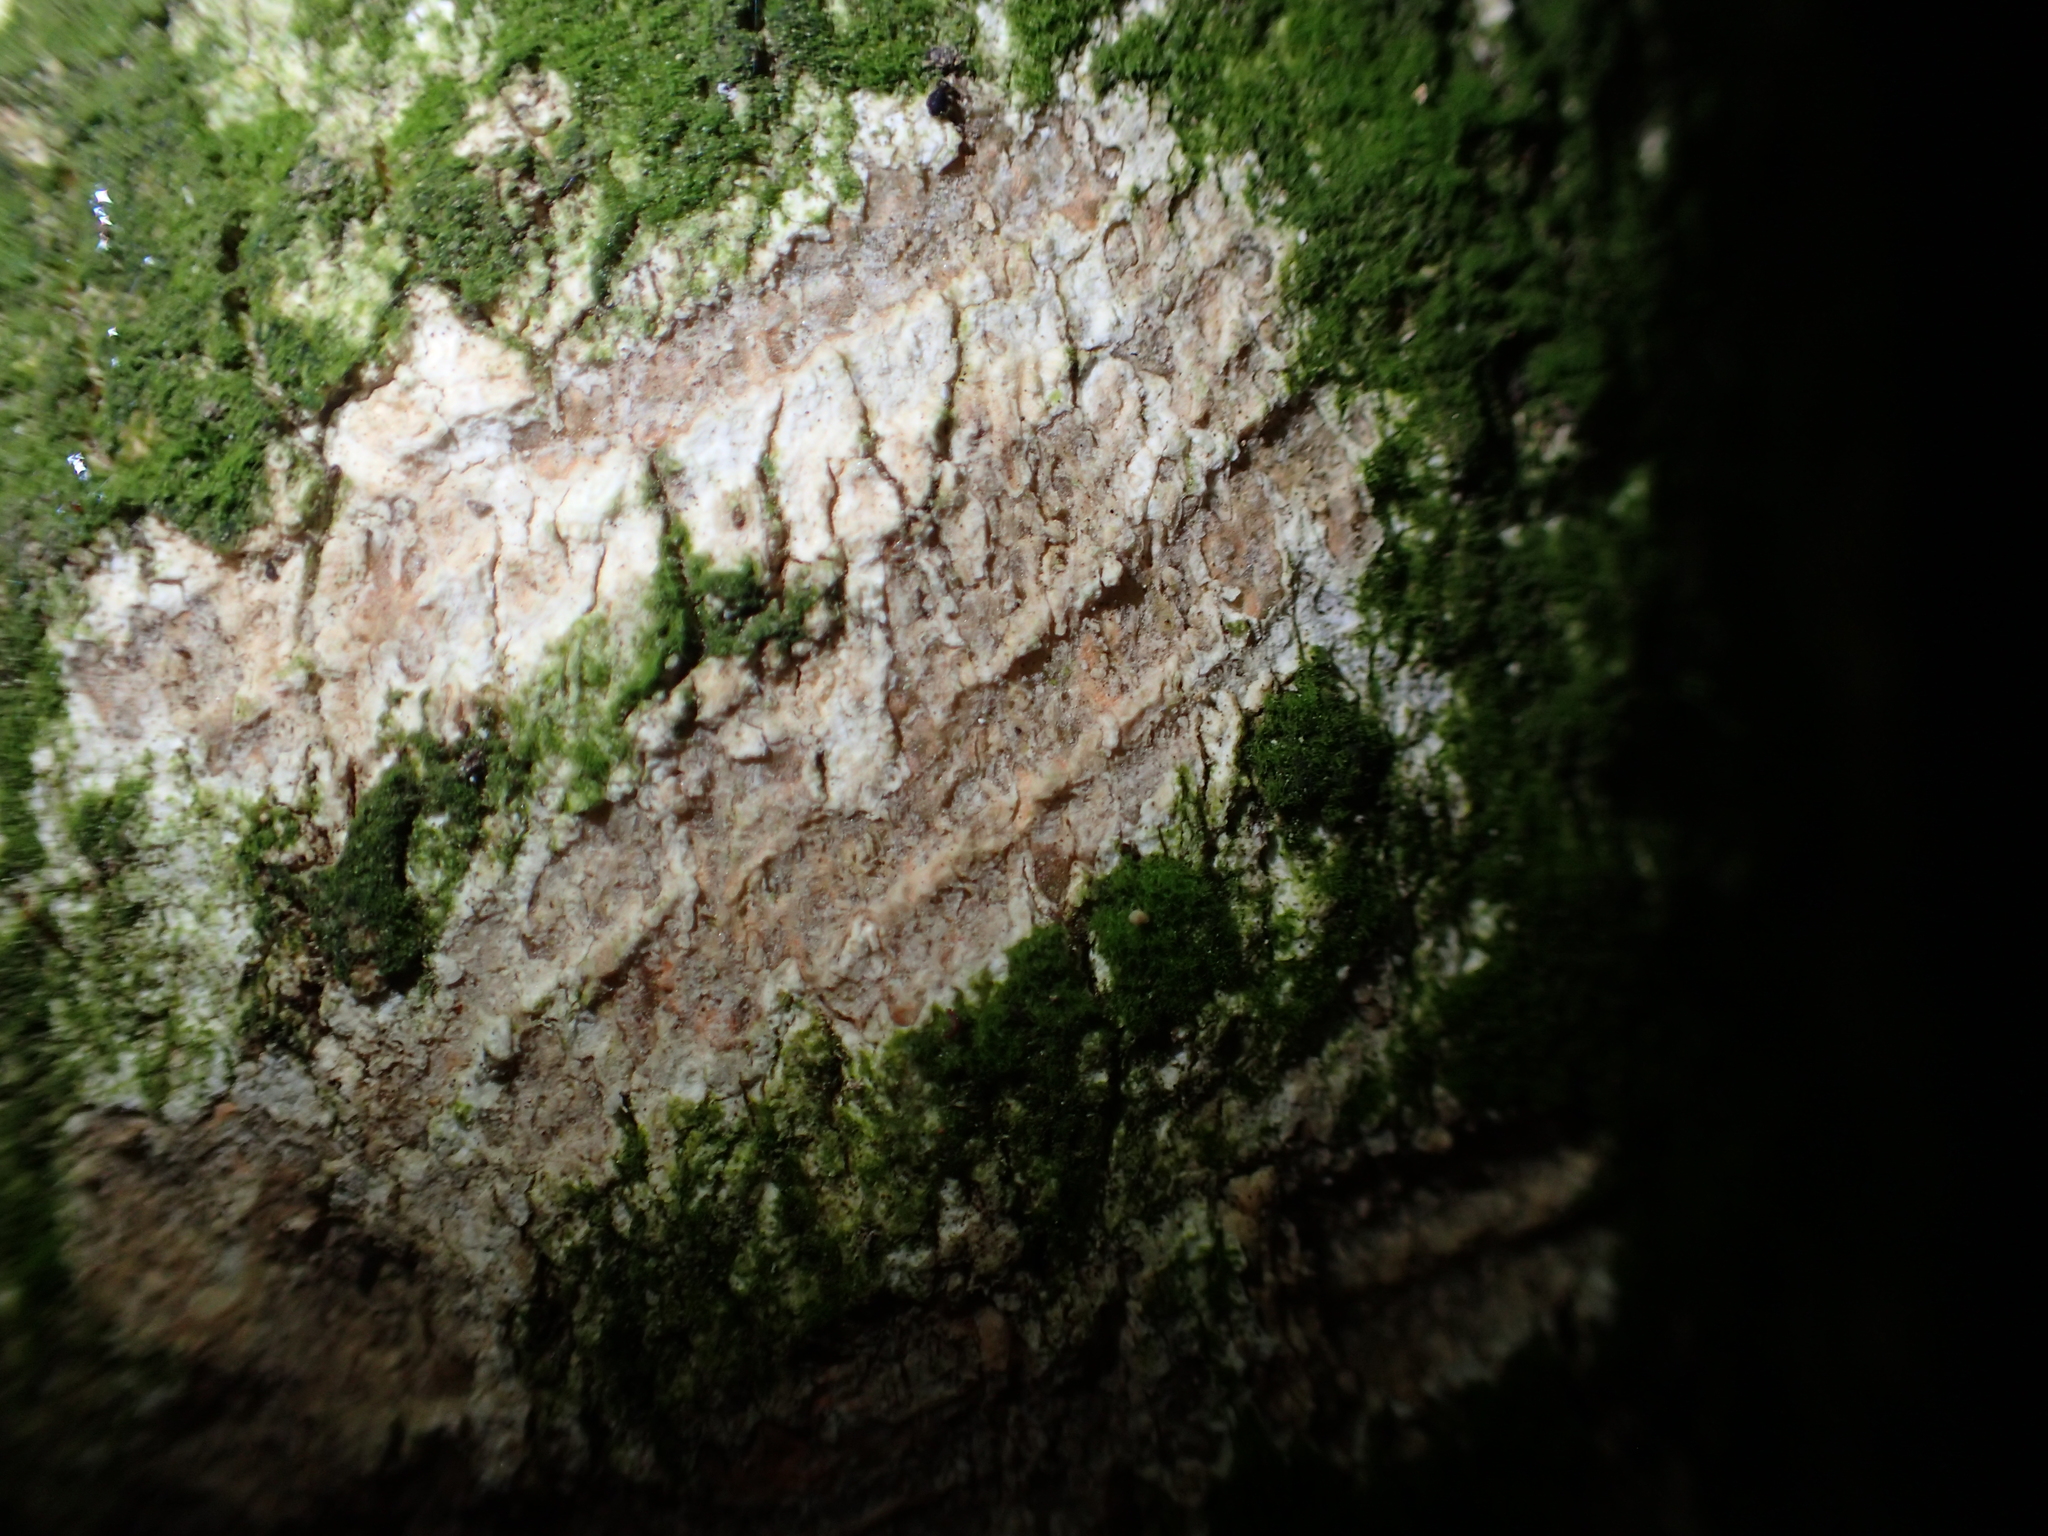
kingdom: Animalia
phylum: Chordata
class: Mammalia
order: Diprotodontia
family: Phalangeridae
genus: Trichosurus
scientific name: Trichosurus vulpecula
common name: Common brushtail
